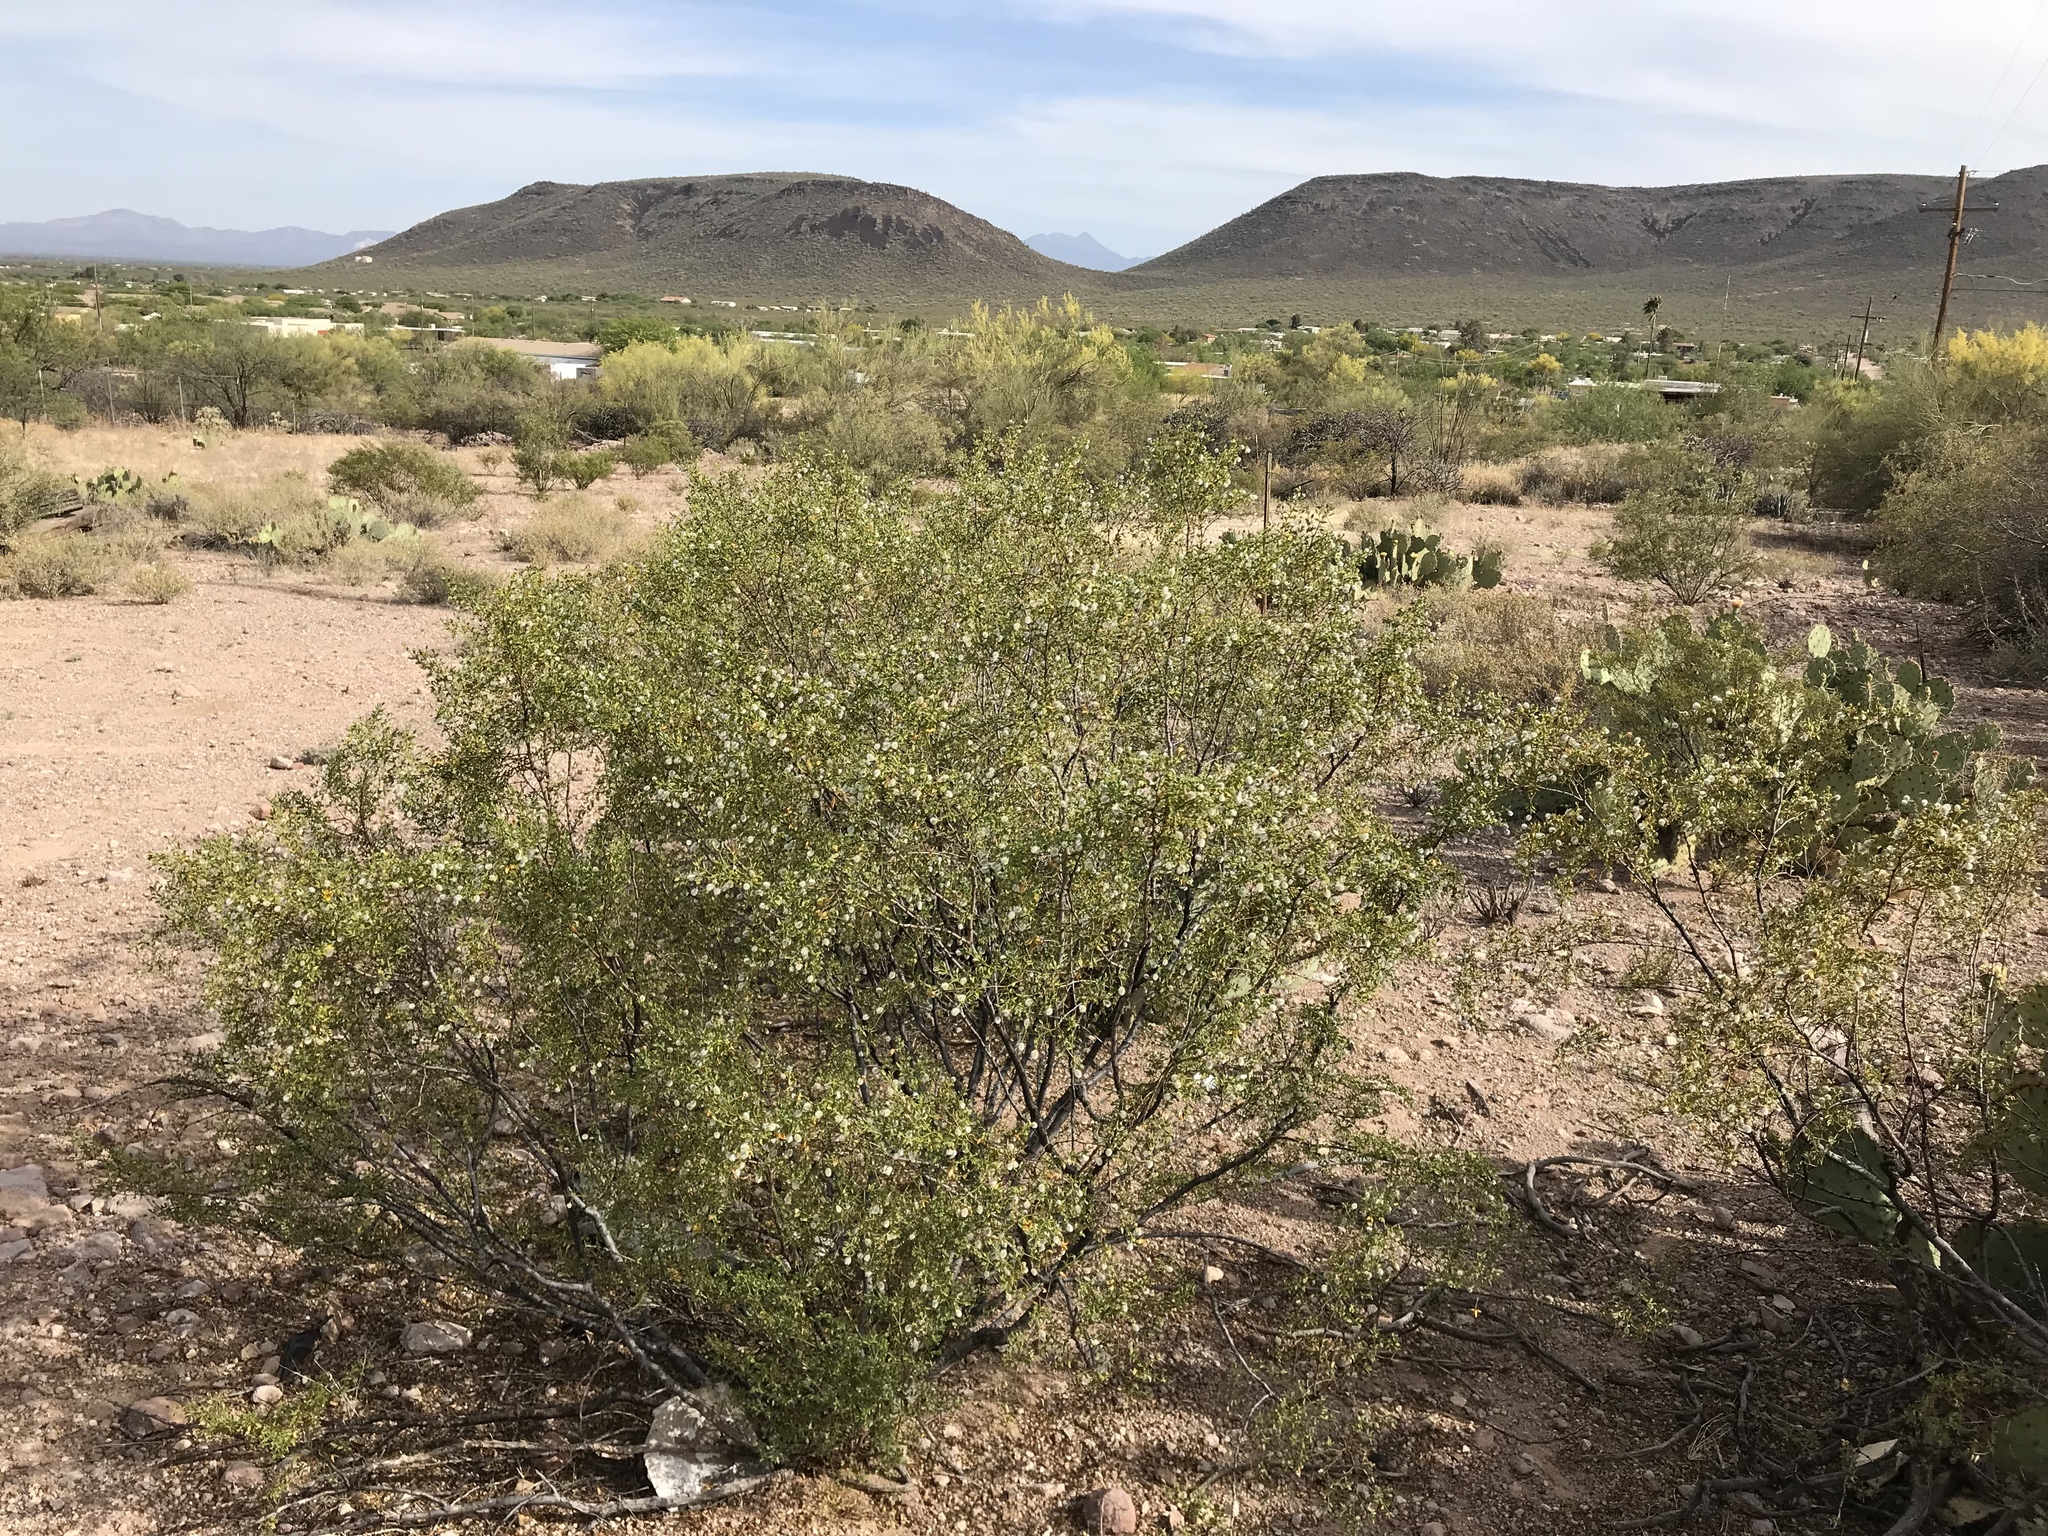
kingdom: Plantae
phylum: Tracheophyta
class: Magnoliopsida
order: Zygophyllales
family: Zygophyllaceae
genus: Larrea
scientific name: Larrea tridentata
